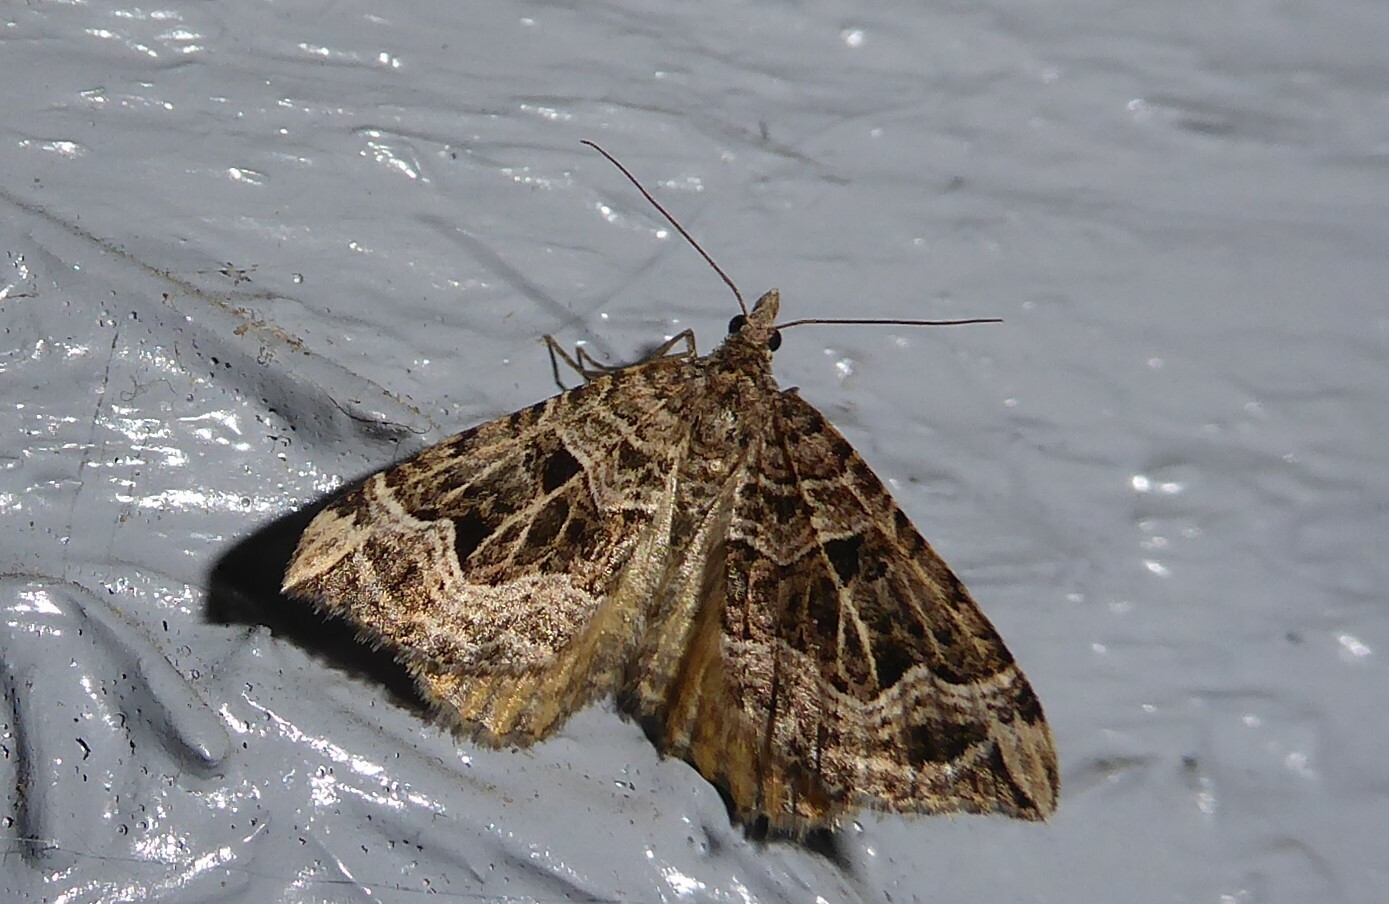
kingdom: Animalia
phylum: Arthropoda
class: Insecta
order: Lepidoptera
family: Geometridae
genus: Xanthorhoe
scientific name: Xanthorhoe semifissata
